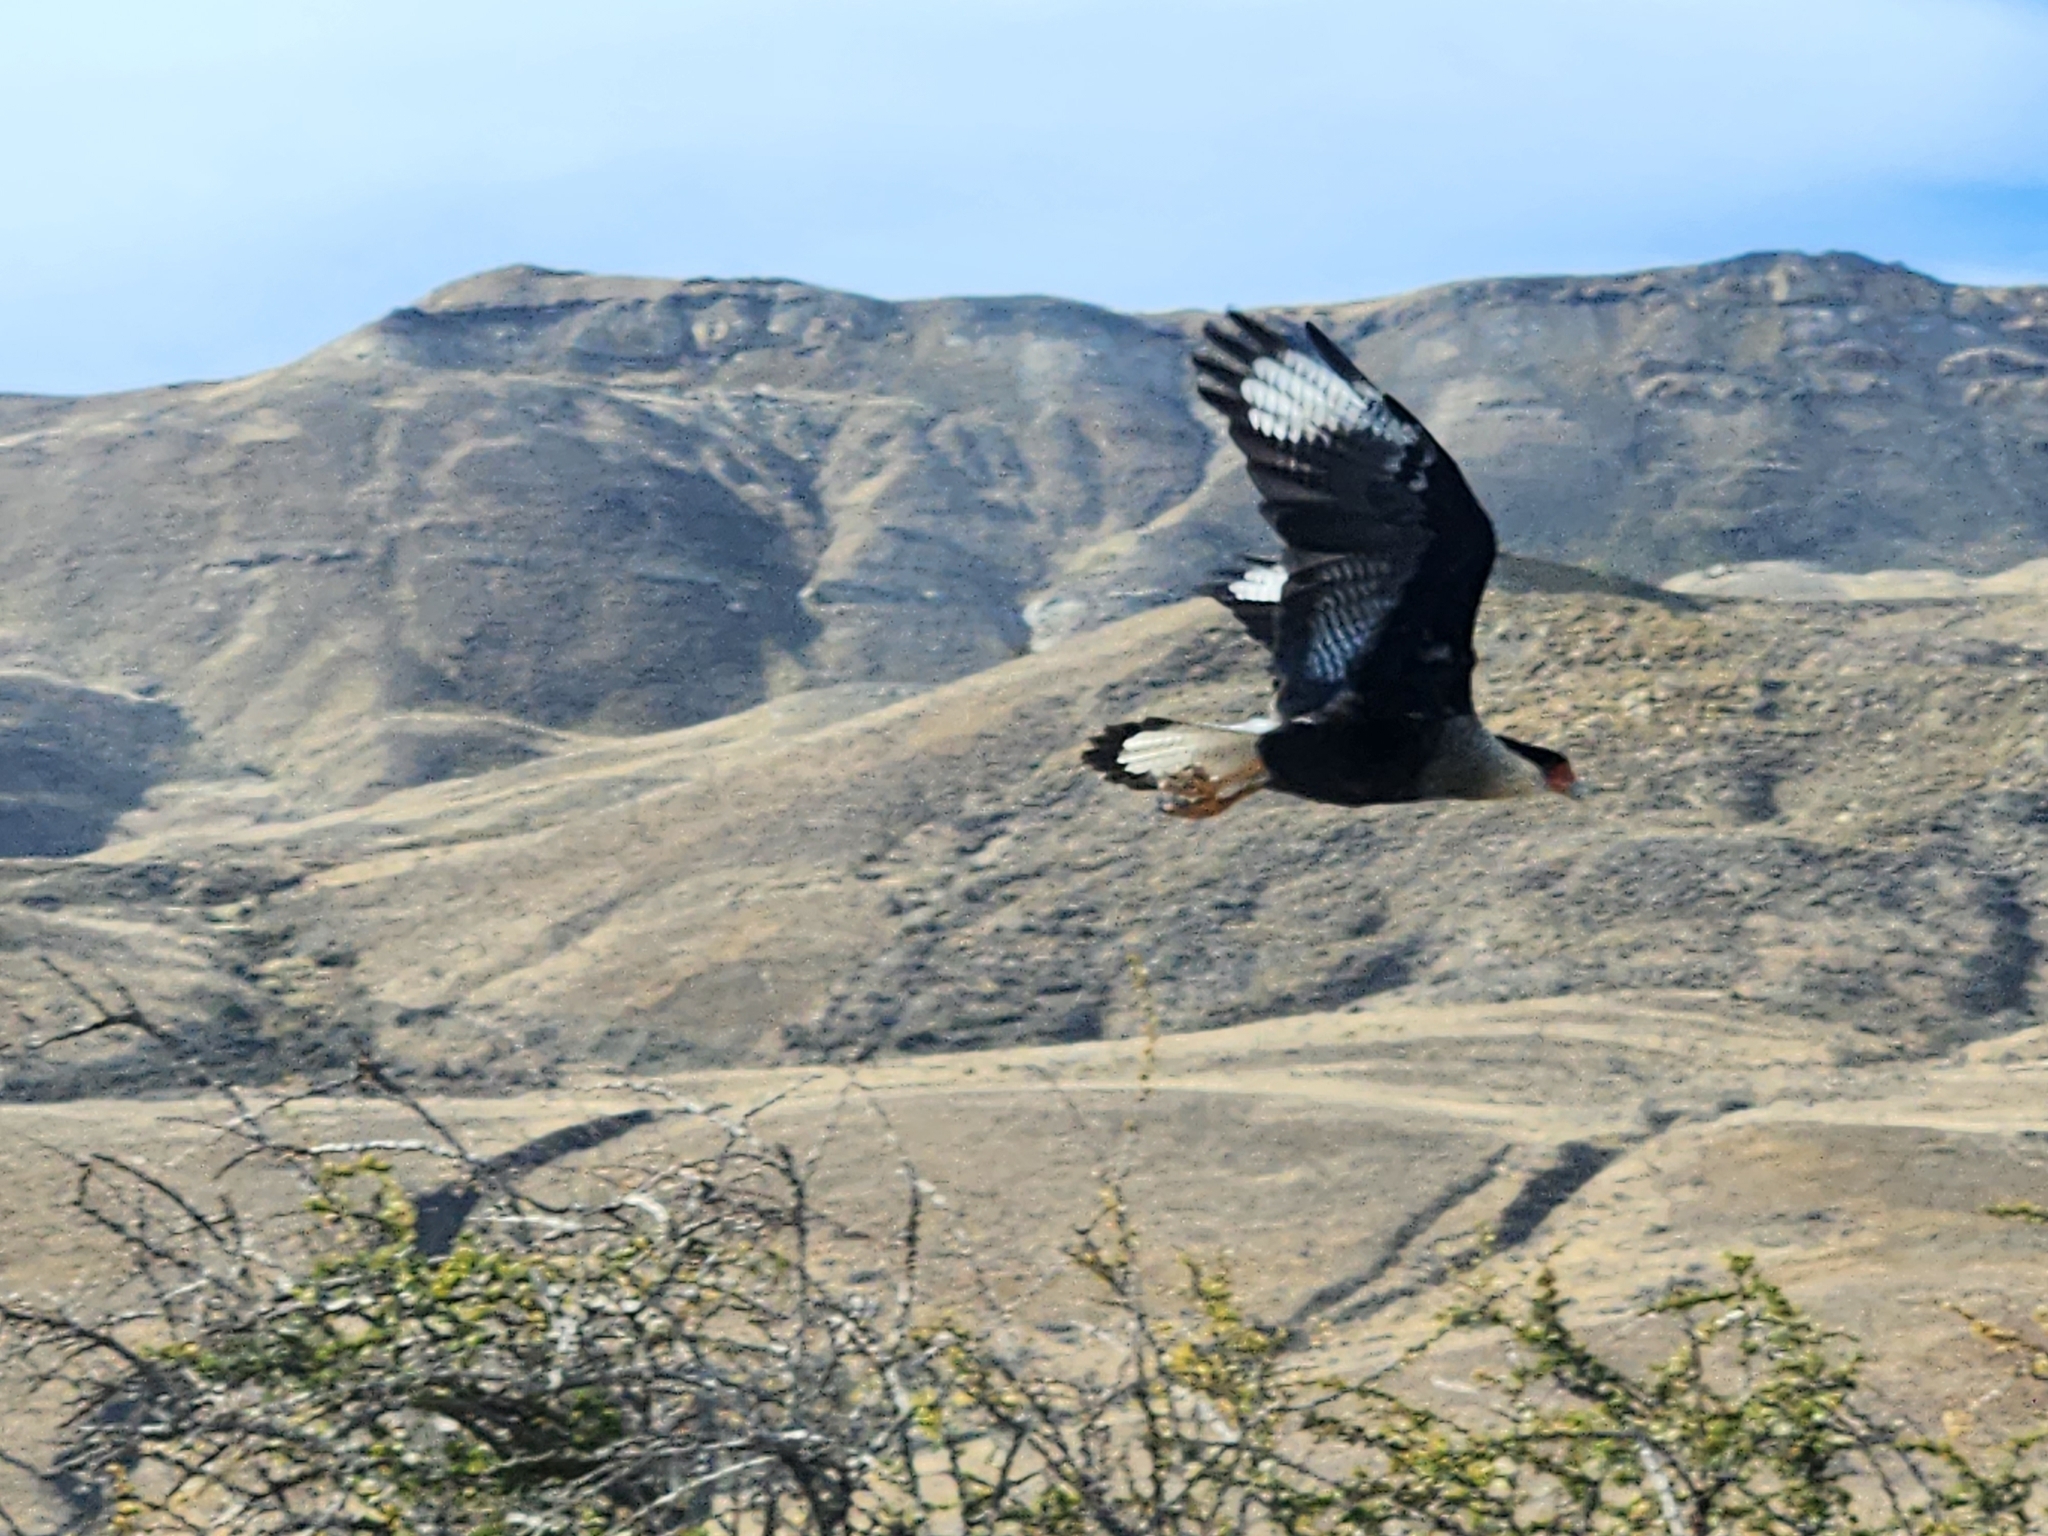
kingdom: Animalia
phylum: Chordata
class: Aves
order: Falconiformes
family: Falconidae
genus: Caracara
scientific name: Caracara plancus
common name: Southern caracara
